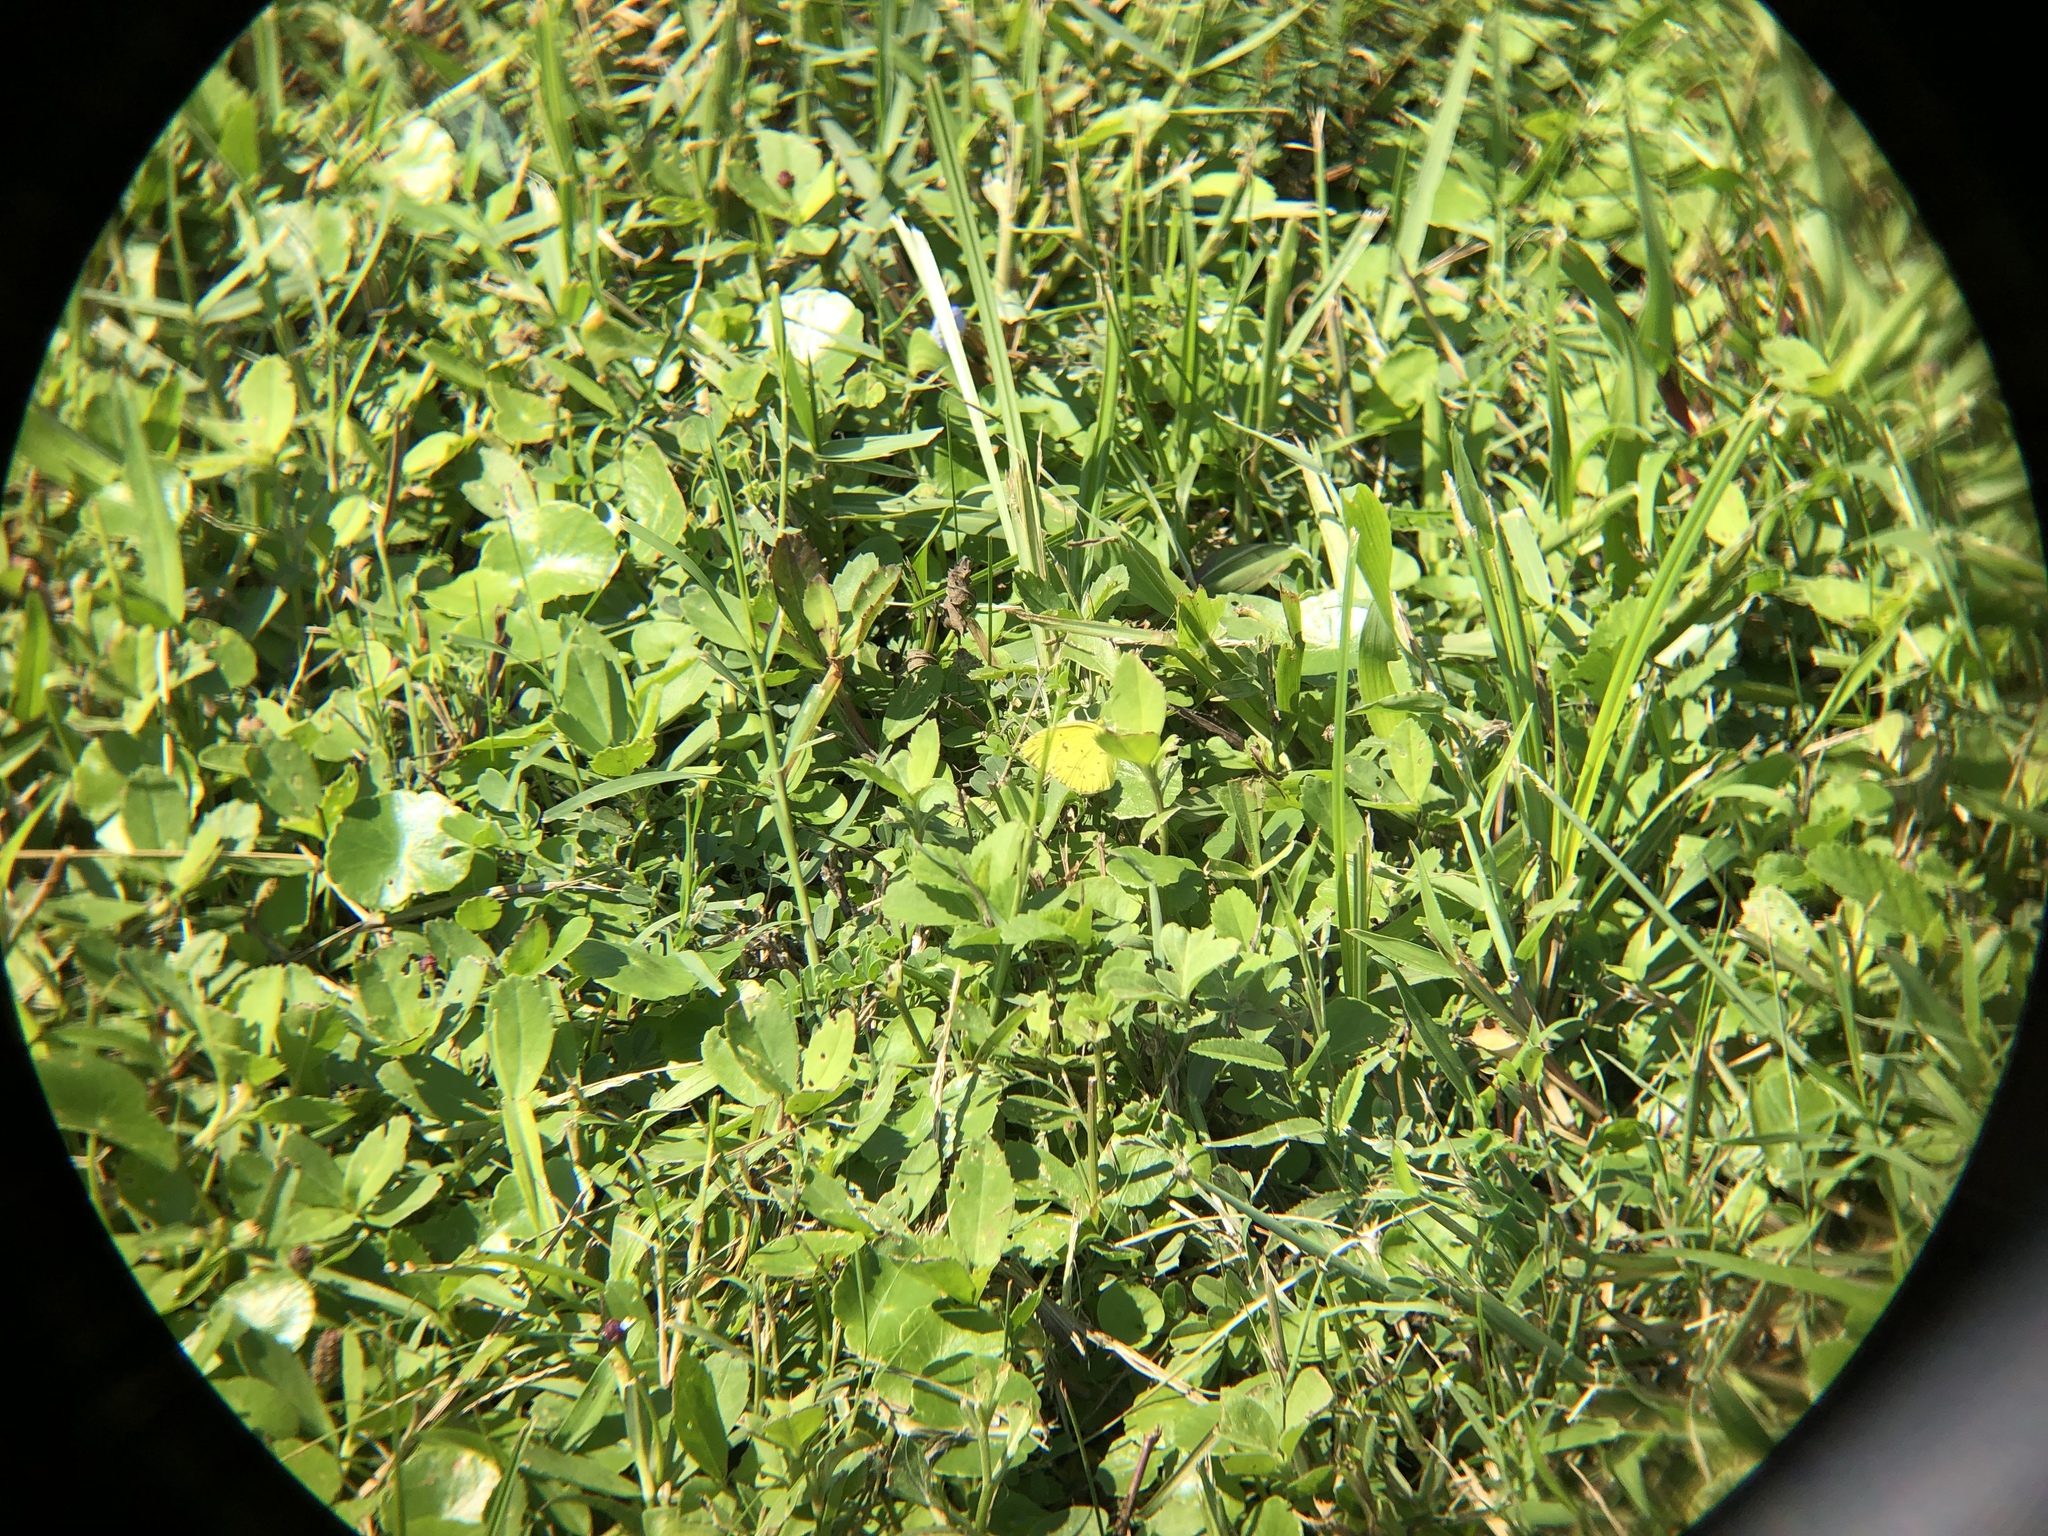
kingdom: Animalia
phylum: Arthropoda
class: Insecta
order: Lepidoptera
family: Pieridae
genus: Pyrisitia
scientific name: Pyrisitia lisa
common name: Little yellow
